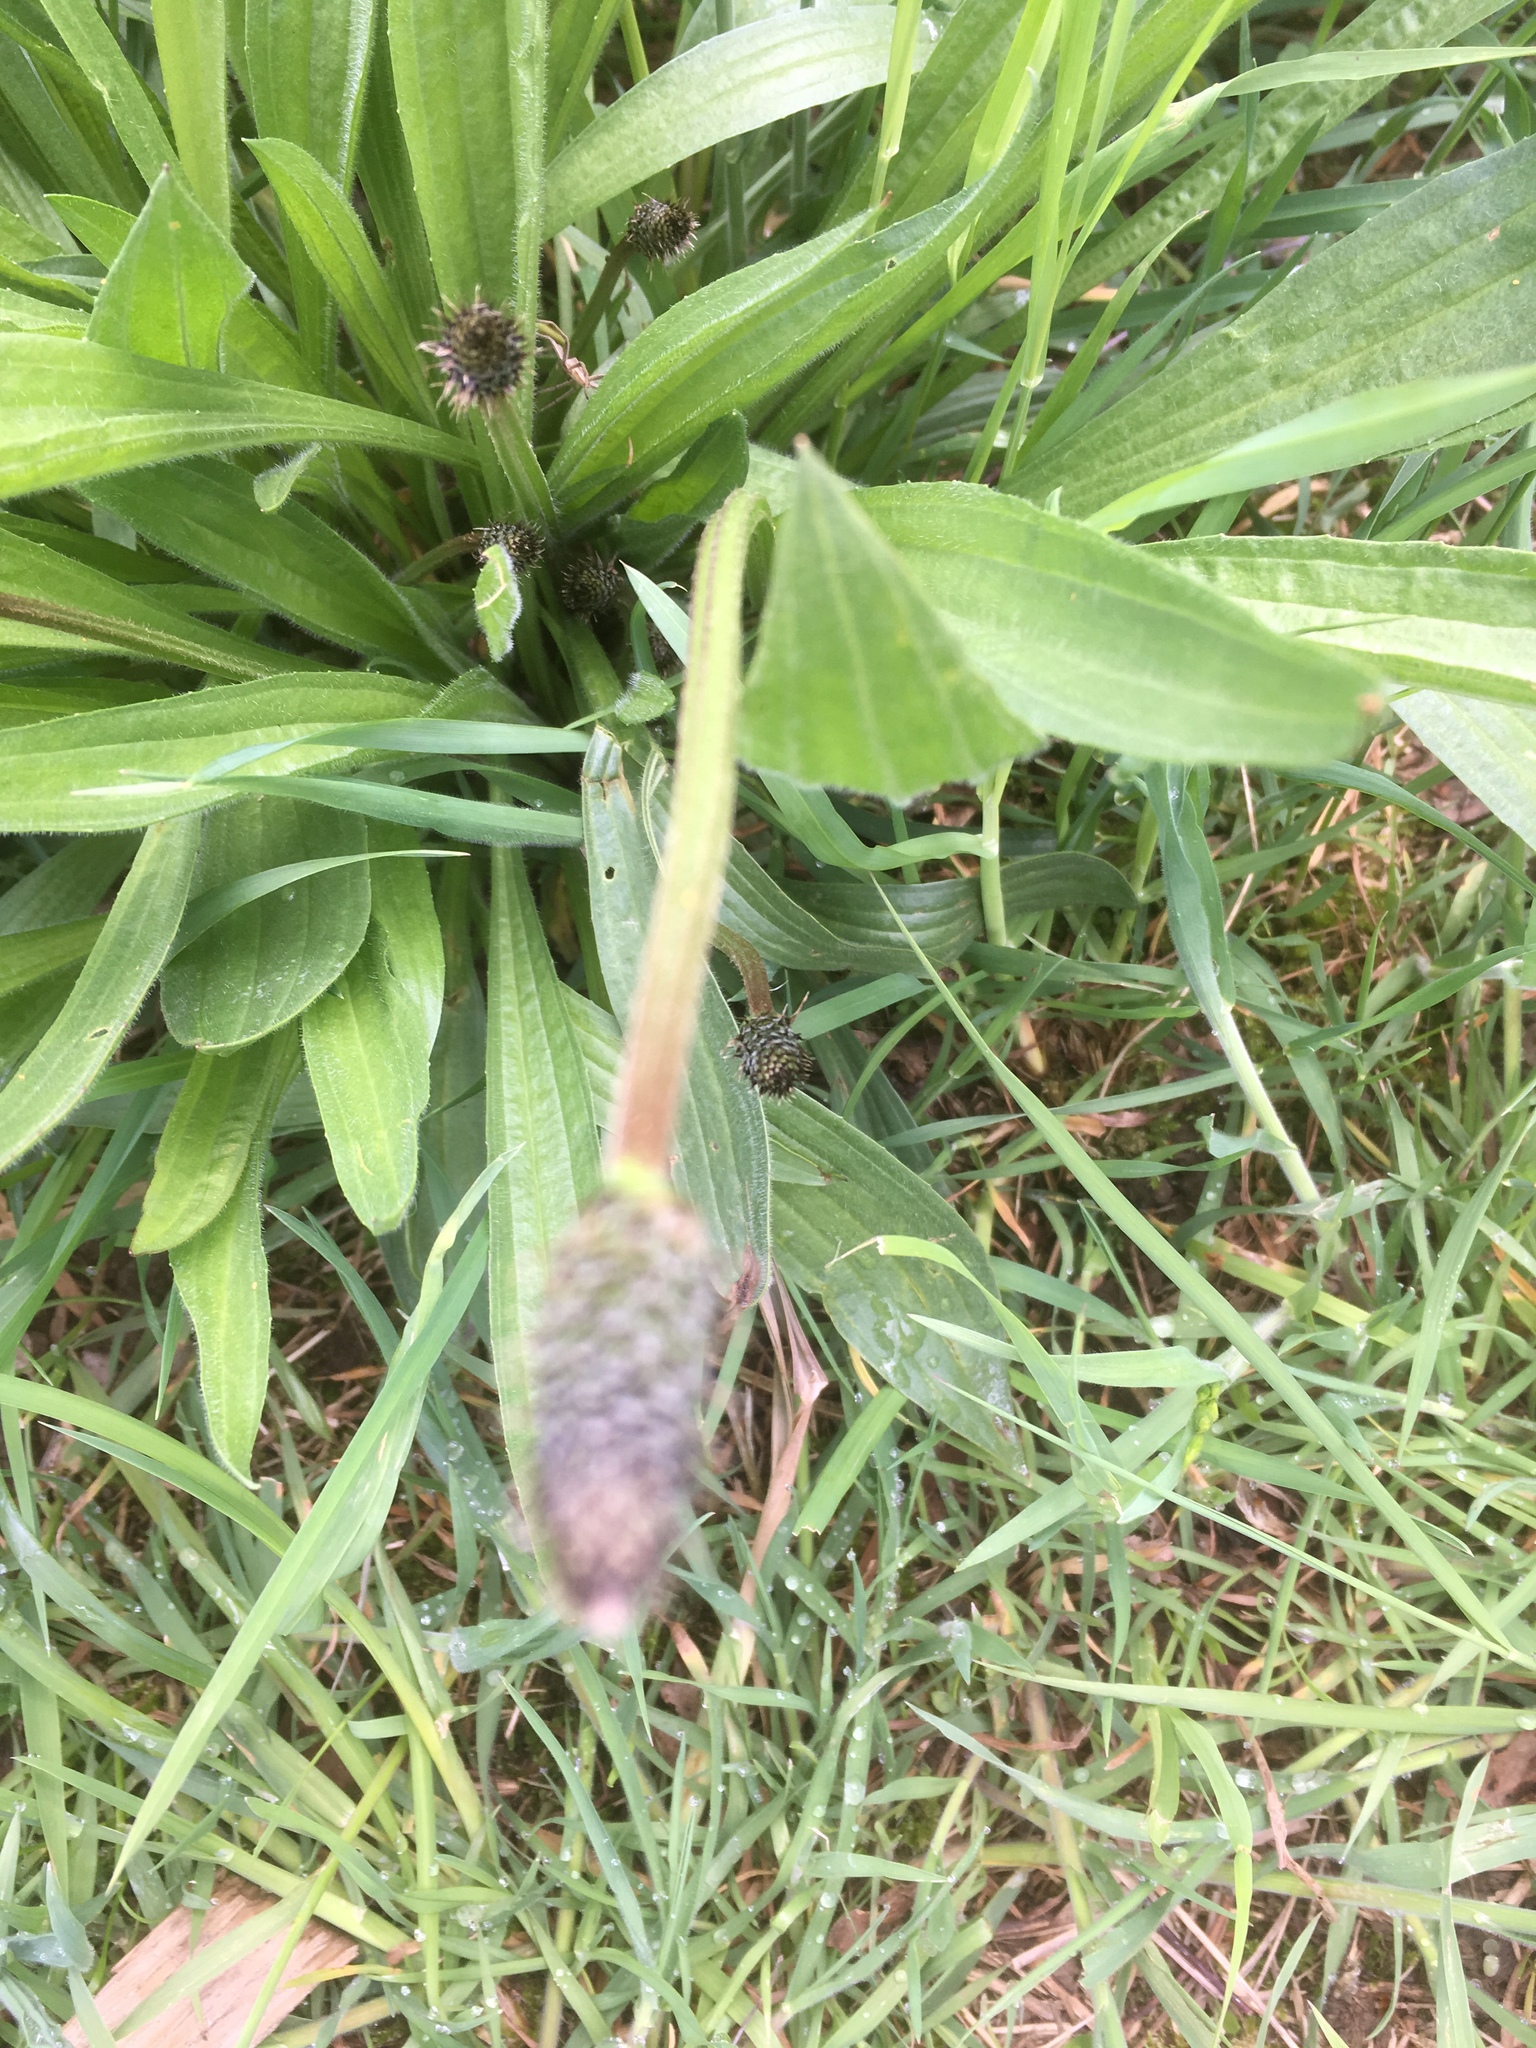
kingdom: Plantae
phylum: Tracheophyta
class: Magnoliopsida
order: Lamiales
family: Plantaginaceae
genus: Plantago
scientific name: Plantago lanceolata
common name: Ribwort plantain
